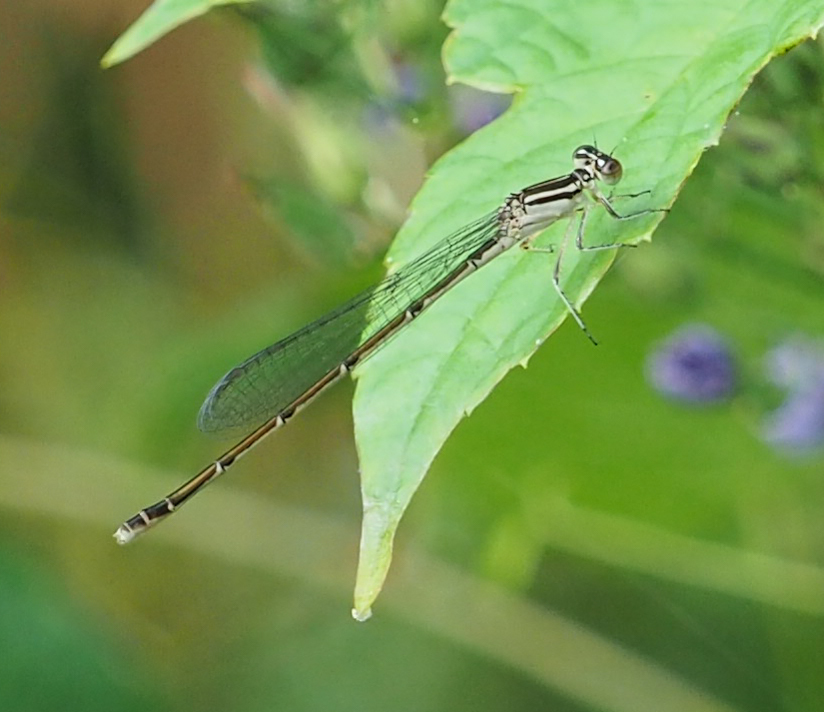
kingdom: Animalia
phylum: Arthropoda
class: Insecta
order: Odonata
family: Coenagrionidae
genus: Enallagma
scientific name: Enallagma durum
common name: Big bluet
